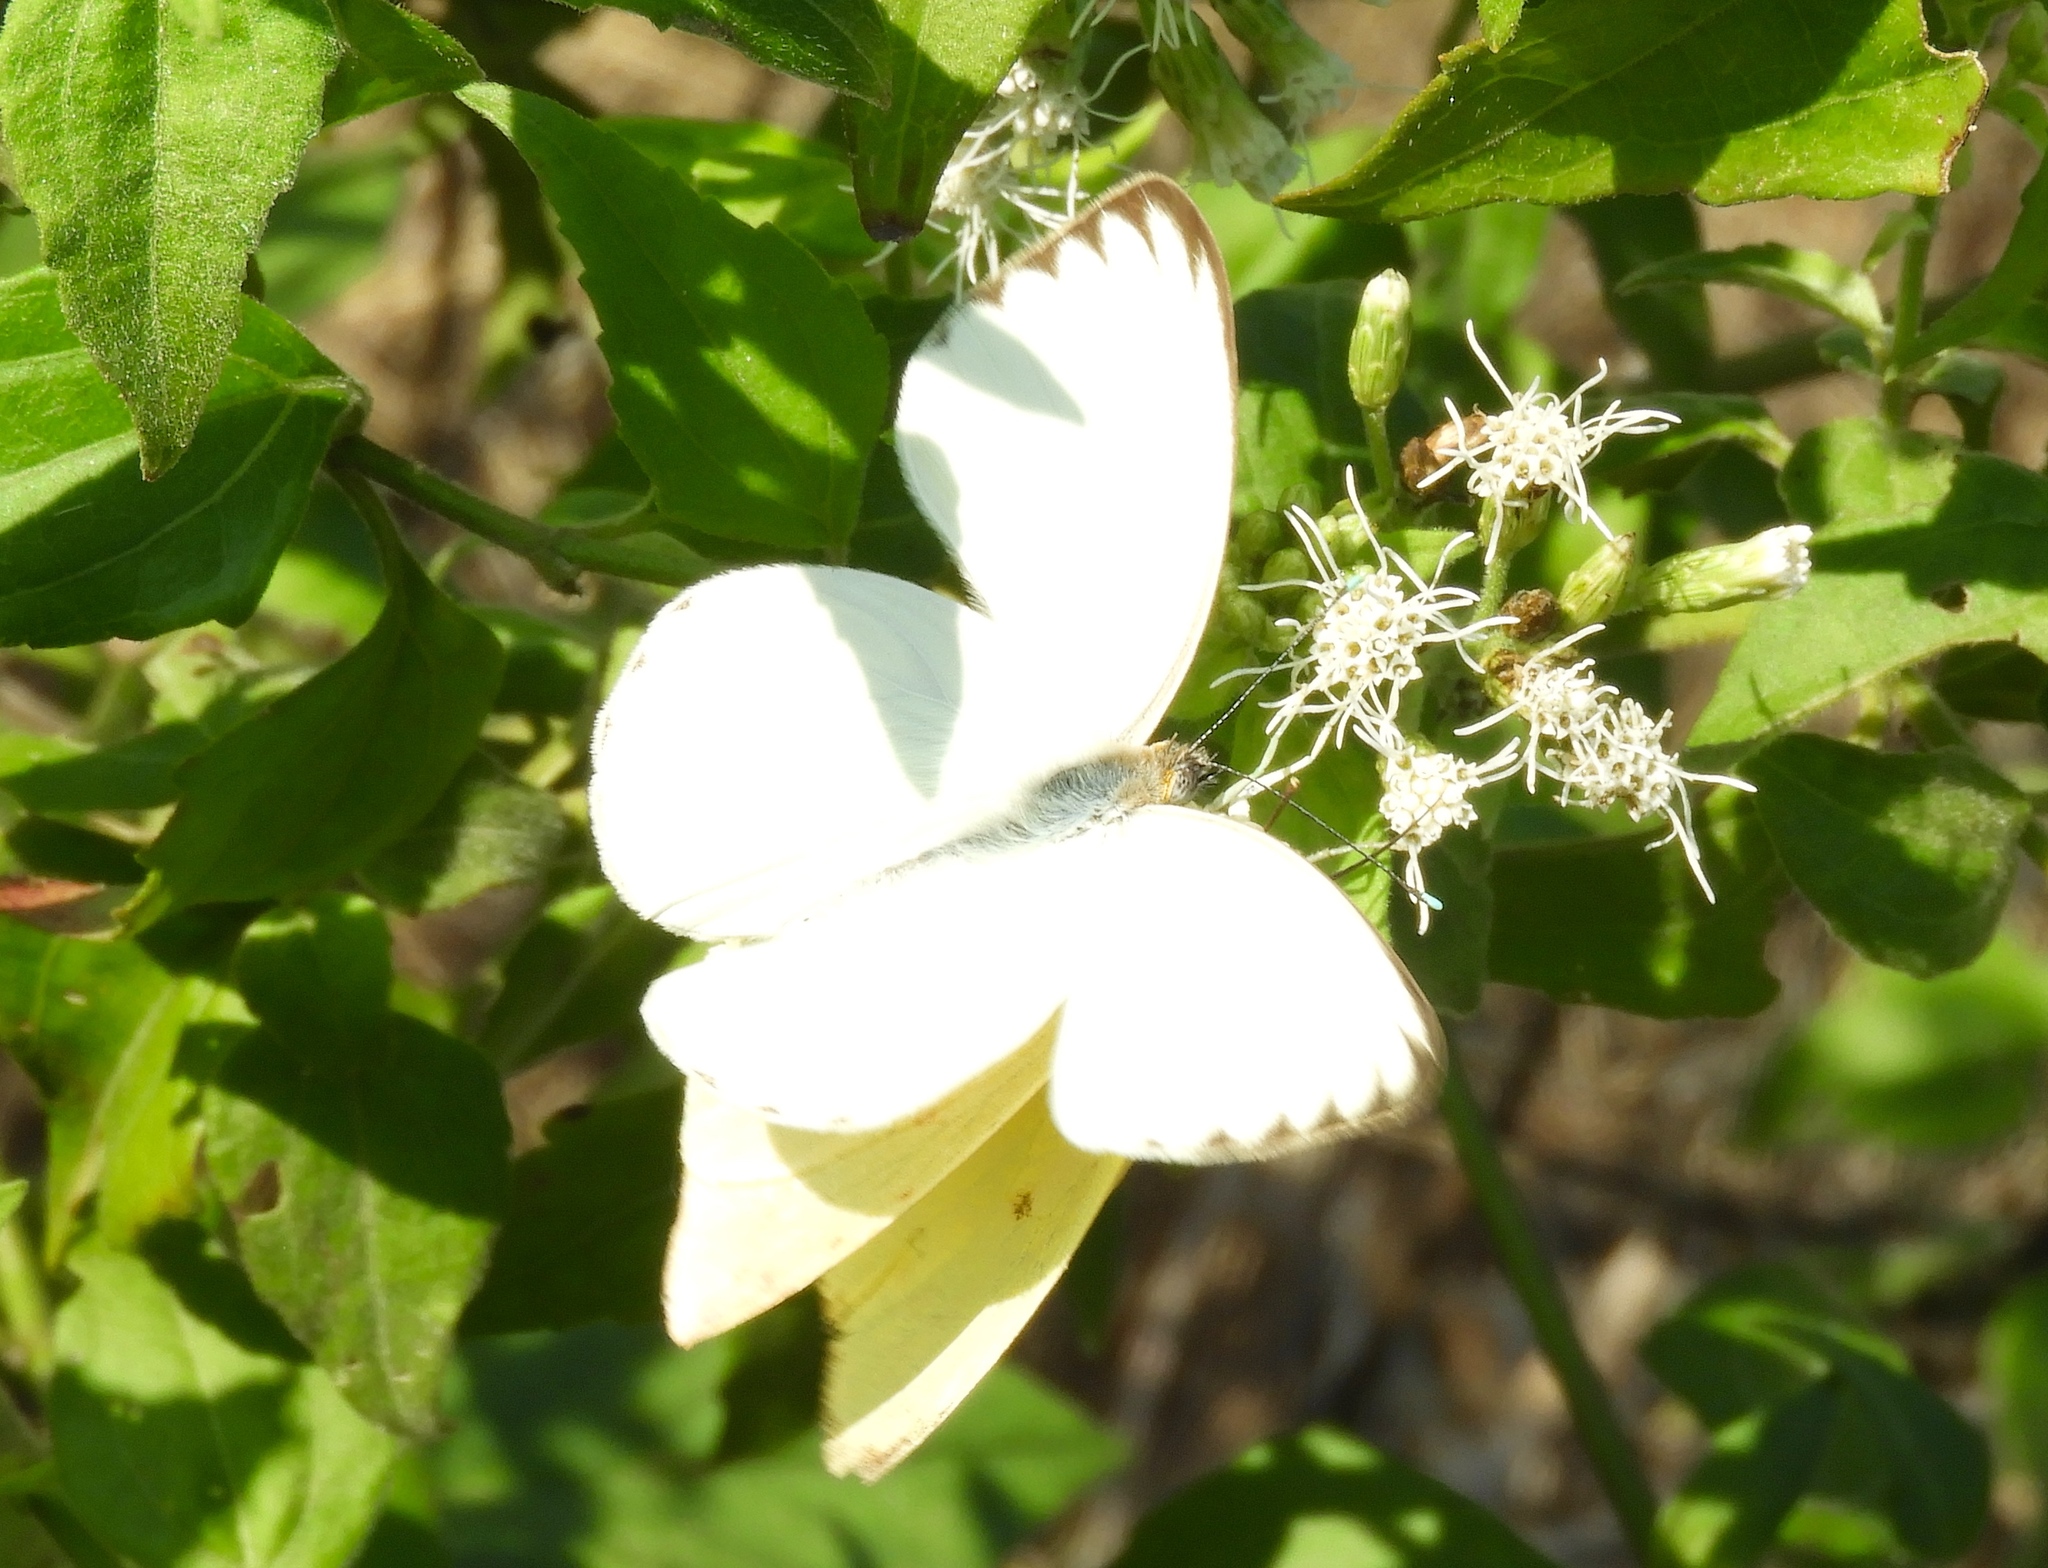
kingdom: Animalia
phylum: Arthropoda
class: Insecta
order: Lepidoptera
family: Pieridae
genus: Ascia
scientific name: Ascia monuste
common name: Great southern white
